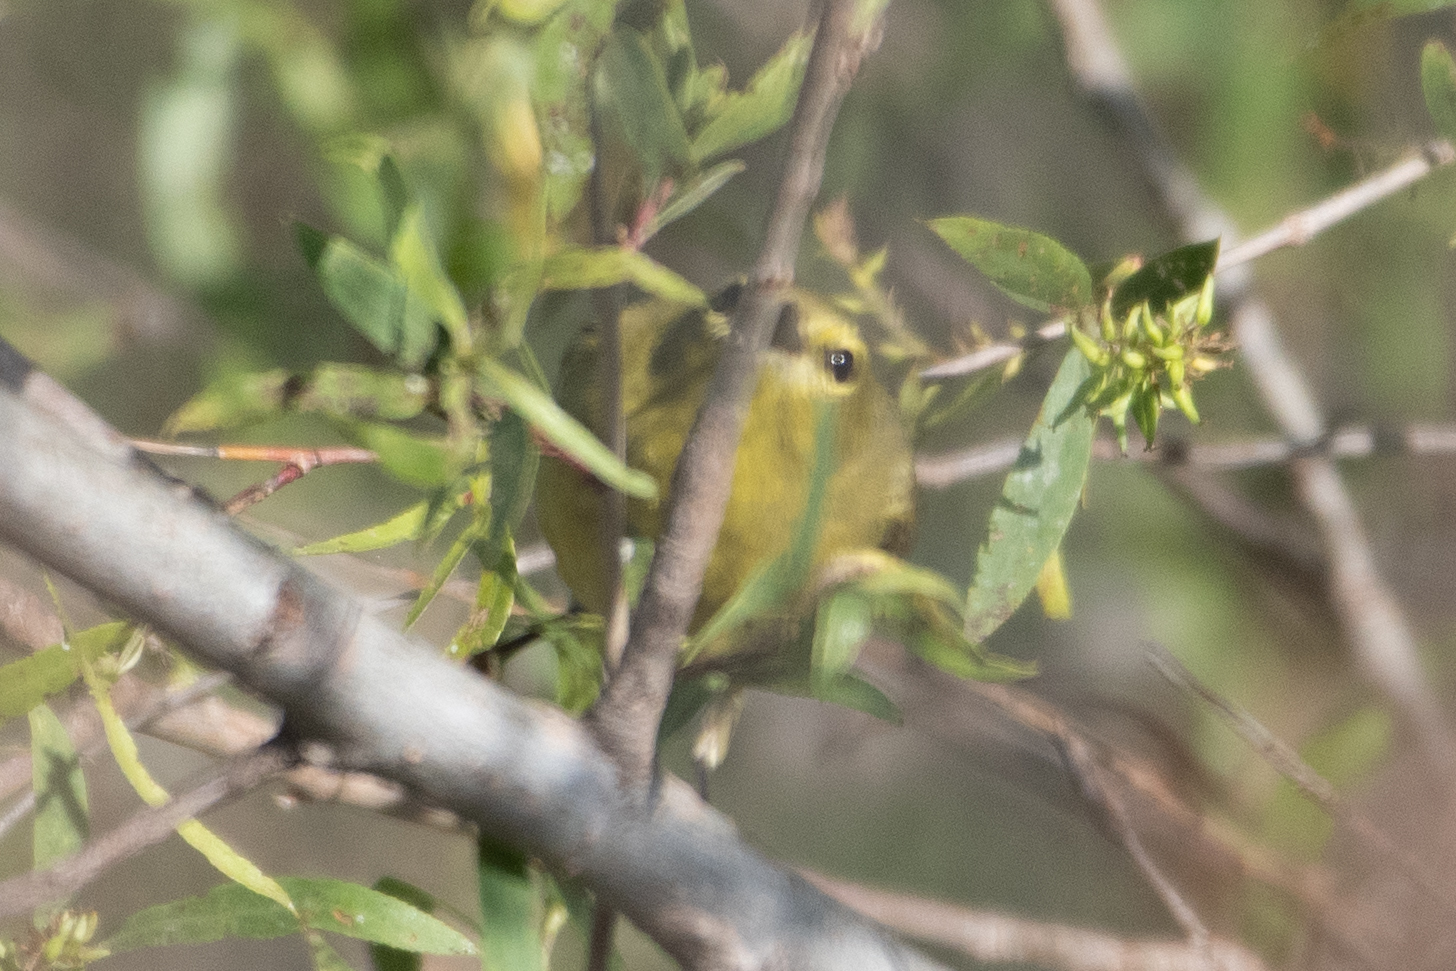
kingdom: Animalia
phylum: Chordata
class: Aves
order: Passeriformes
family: Parulidae
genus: Leiothlypis
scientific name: Leiothlypis celata
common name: Orange-crowned warbler
